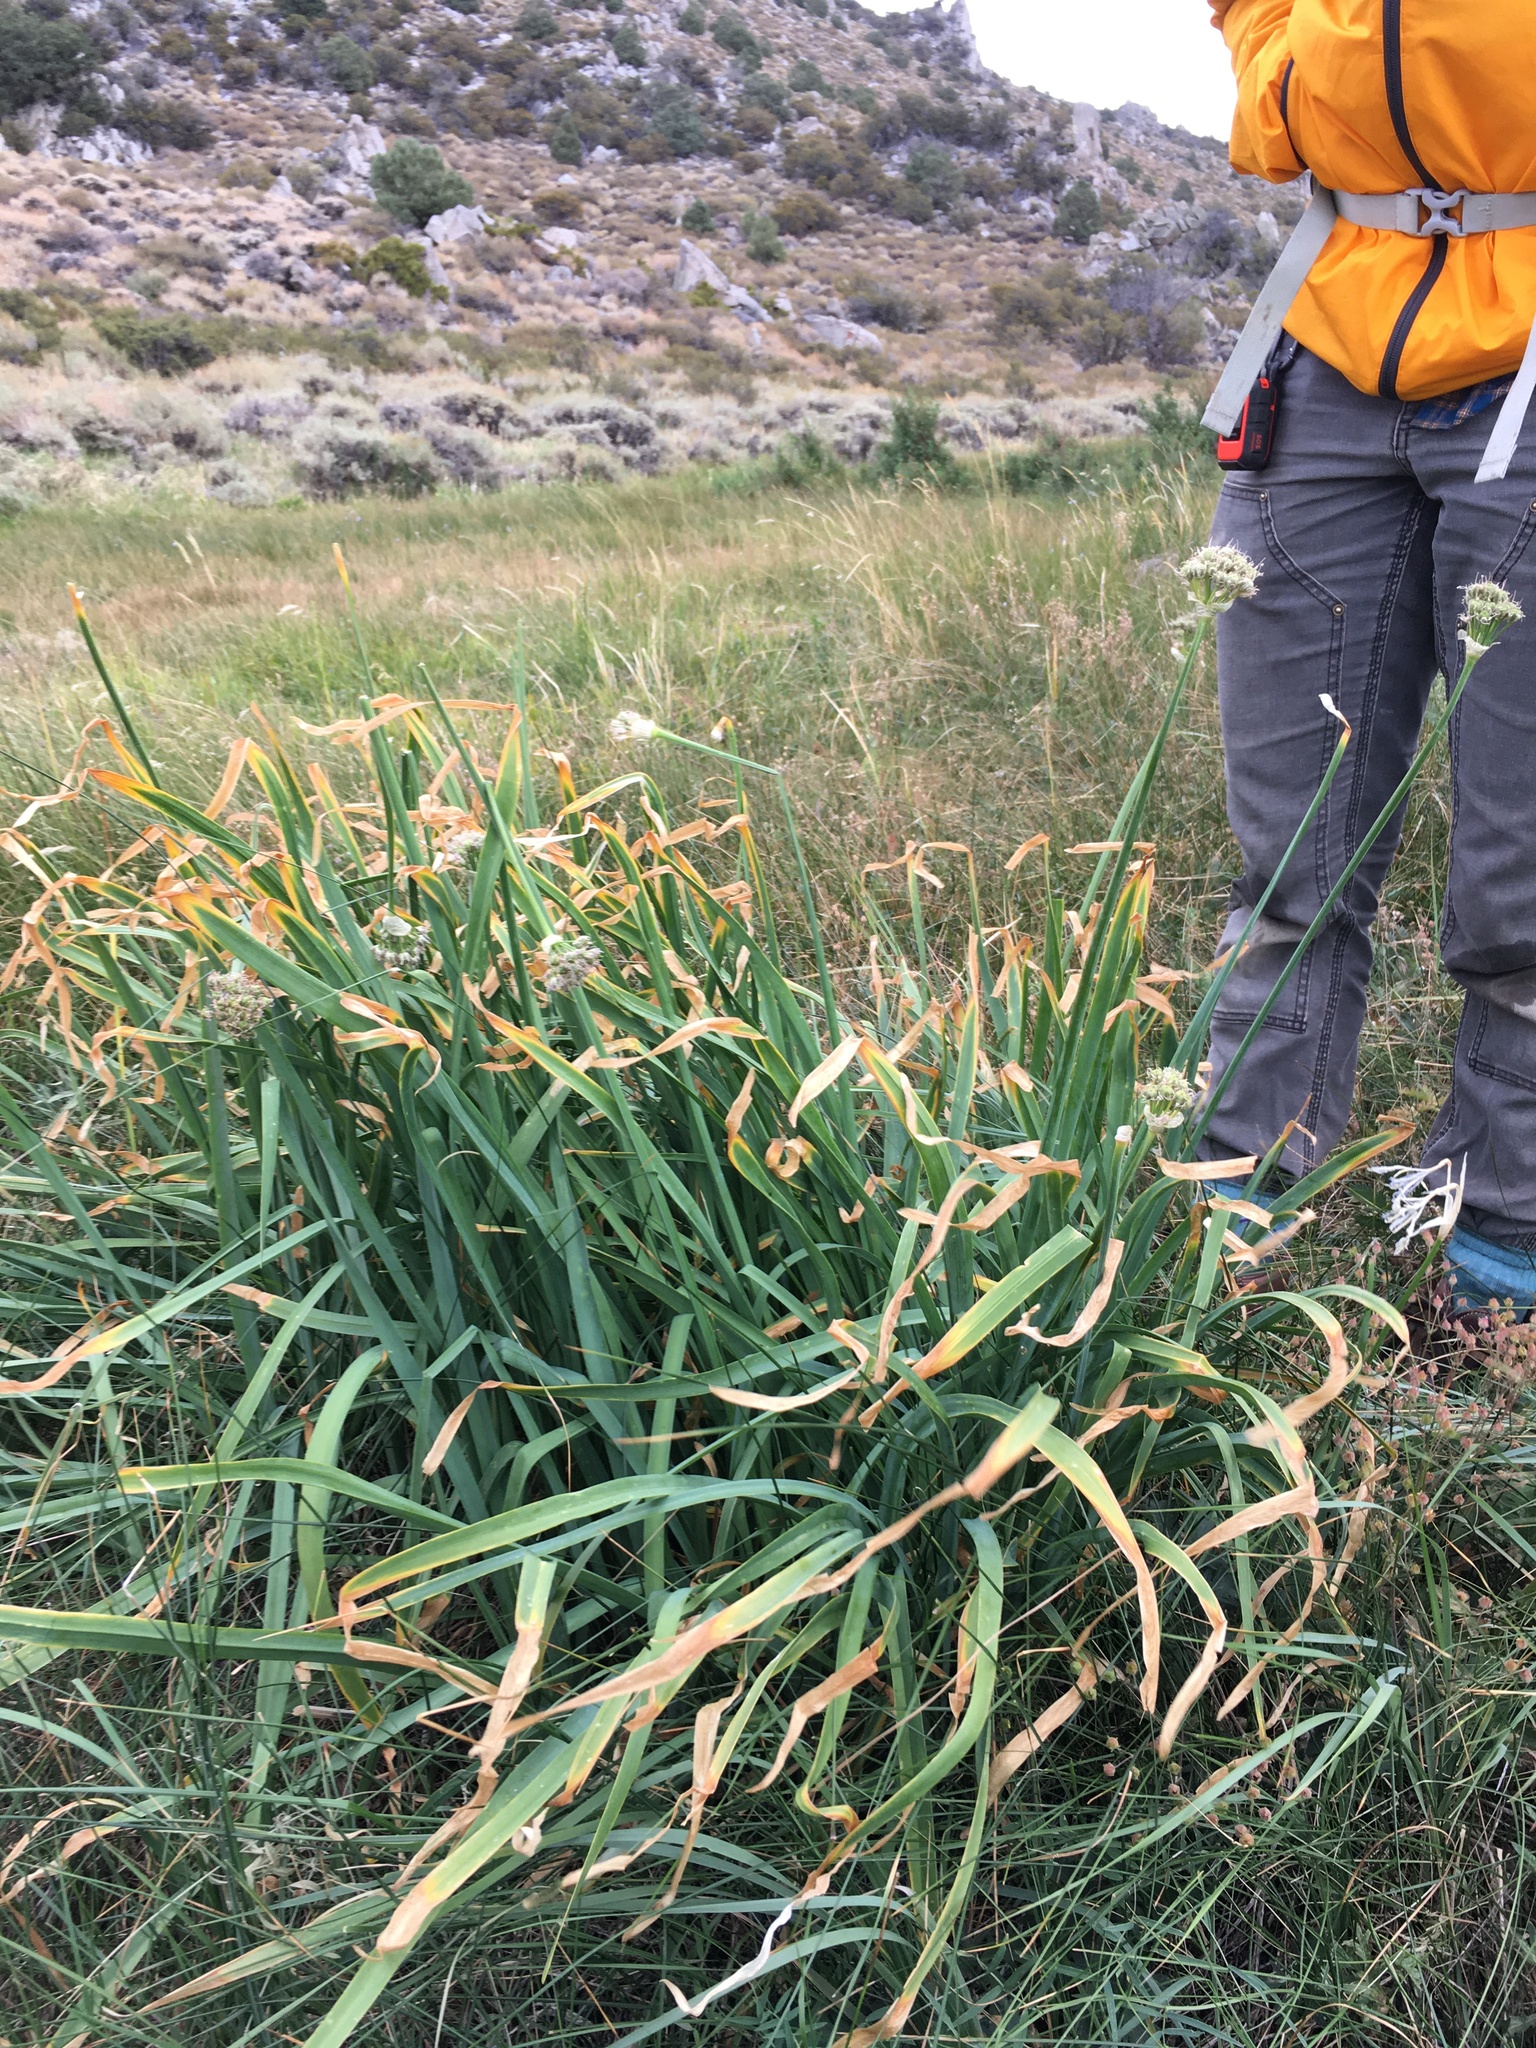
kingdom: Plantae
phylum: Tracheophyta
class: Liliopsida
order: Asparagales
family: Amaryllidaceae
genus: Allium
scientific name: Allium validum
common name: Pacific mountain onion
